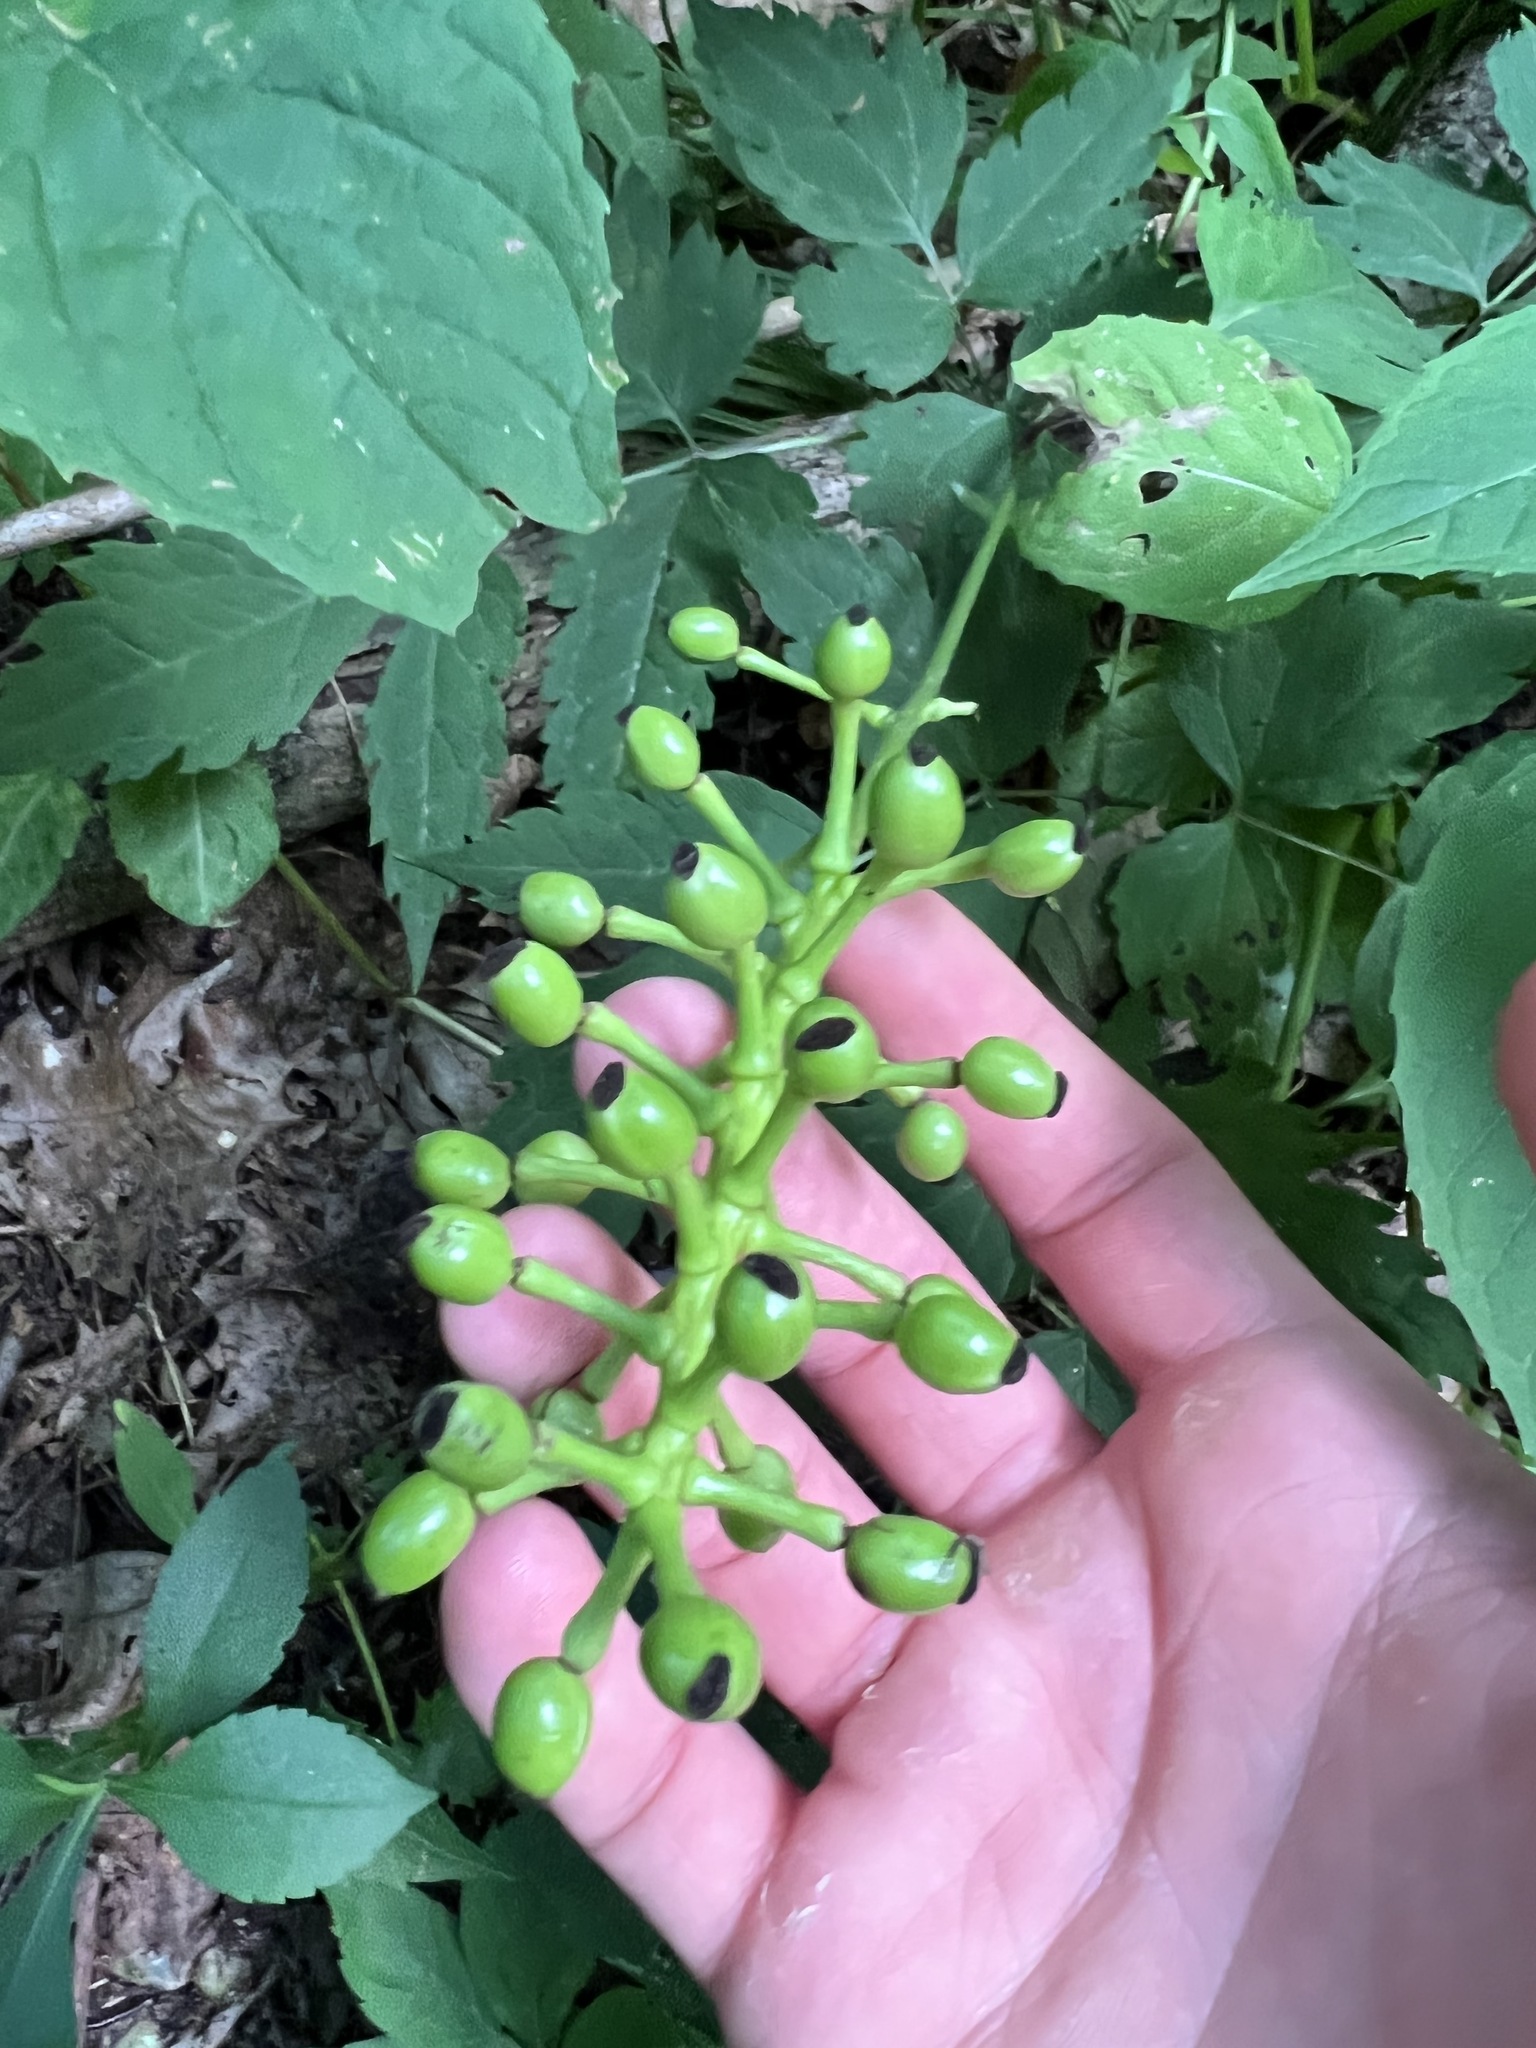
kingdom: Plantae
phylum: Tracheophyta
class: Magnoliopsida
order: Ranunculales
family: Ranunculaceae
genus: Actaea
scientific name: Actaea pachypoda
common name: Doll's-eyes
